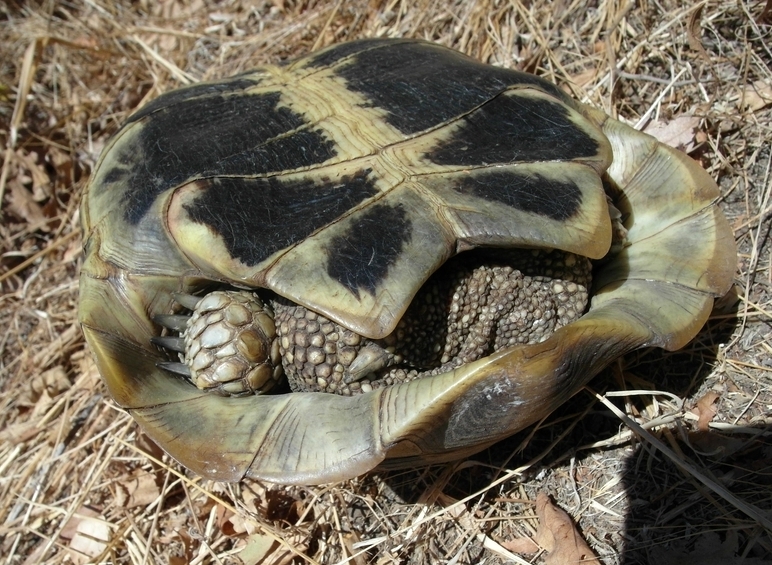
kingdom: Animalia
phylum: Chordata
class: Testudines
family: Testudinidae
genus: Testudo
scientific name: Testudo hermanni
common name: Hermann's tortoise
